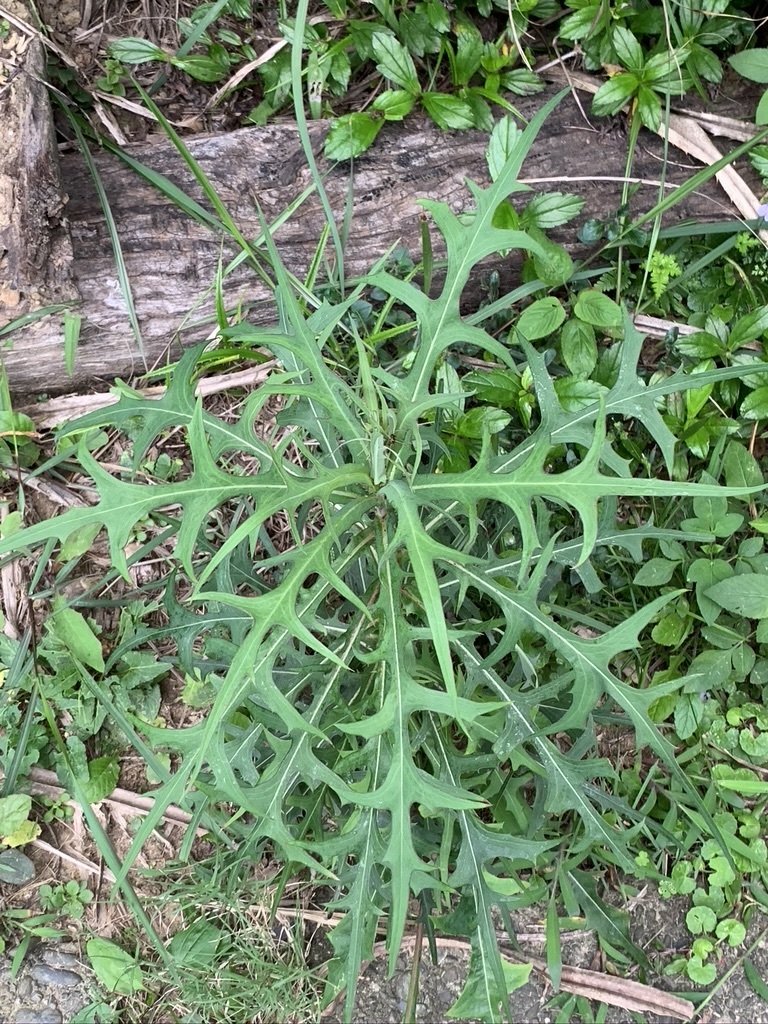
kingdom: Plantae
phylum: Tracheophyta
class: Magnoliopsida
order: Asterales
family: Asteraceae
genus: Lactuca
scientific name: Lactuca indica
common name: Wild lettuce
